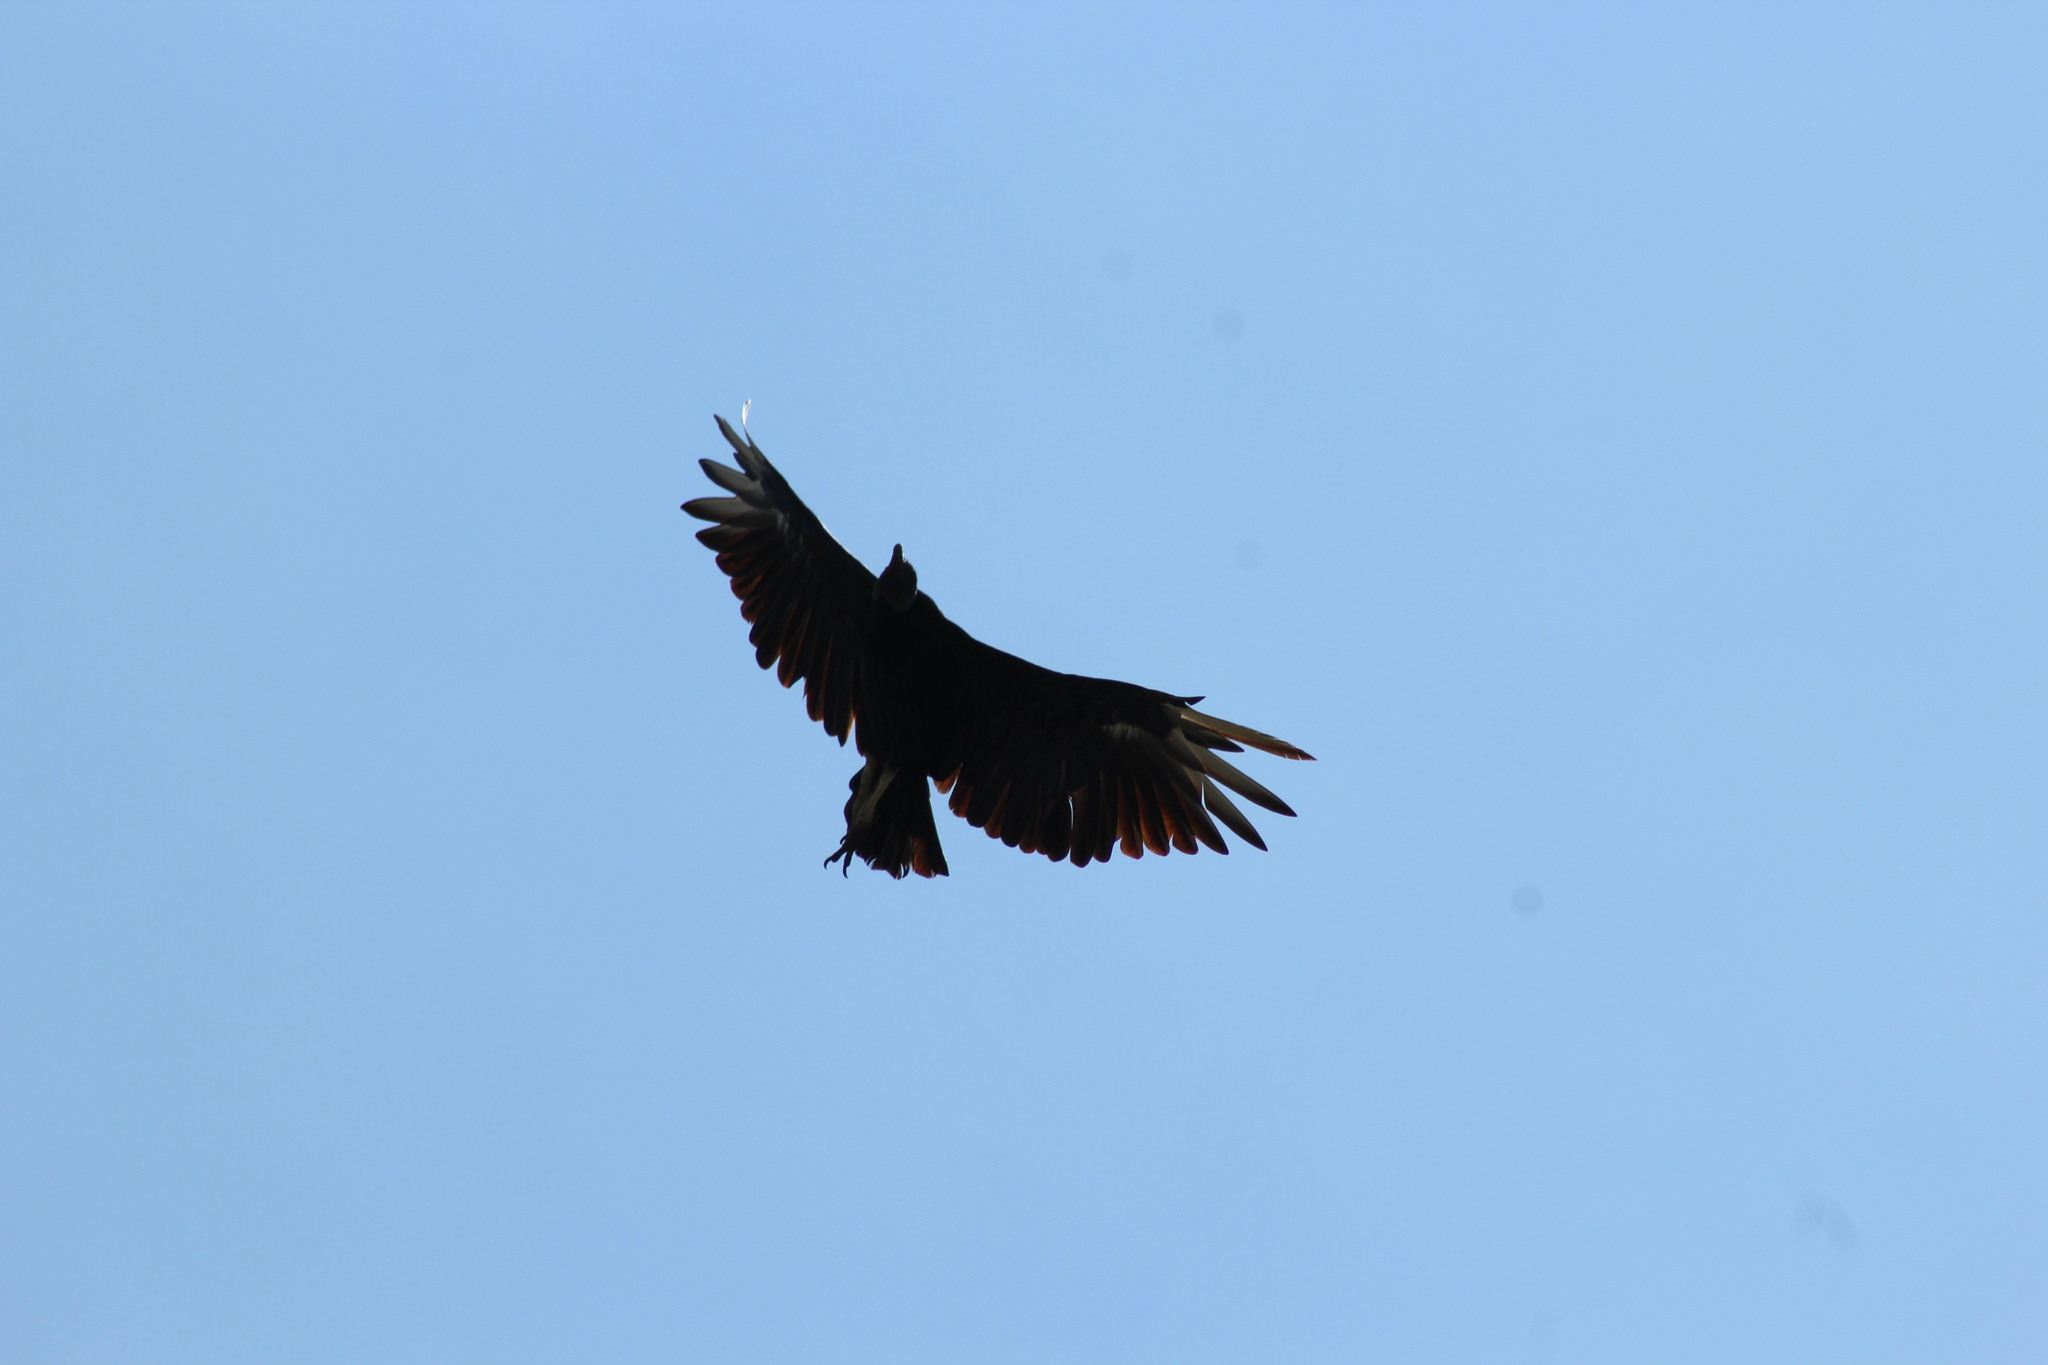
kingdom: Animalia
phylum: Chordata
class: Aves
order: Accipitriformes
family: Cathartidae
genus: Coragyps
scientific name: Coragyps atratus
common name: Black vulture
